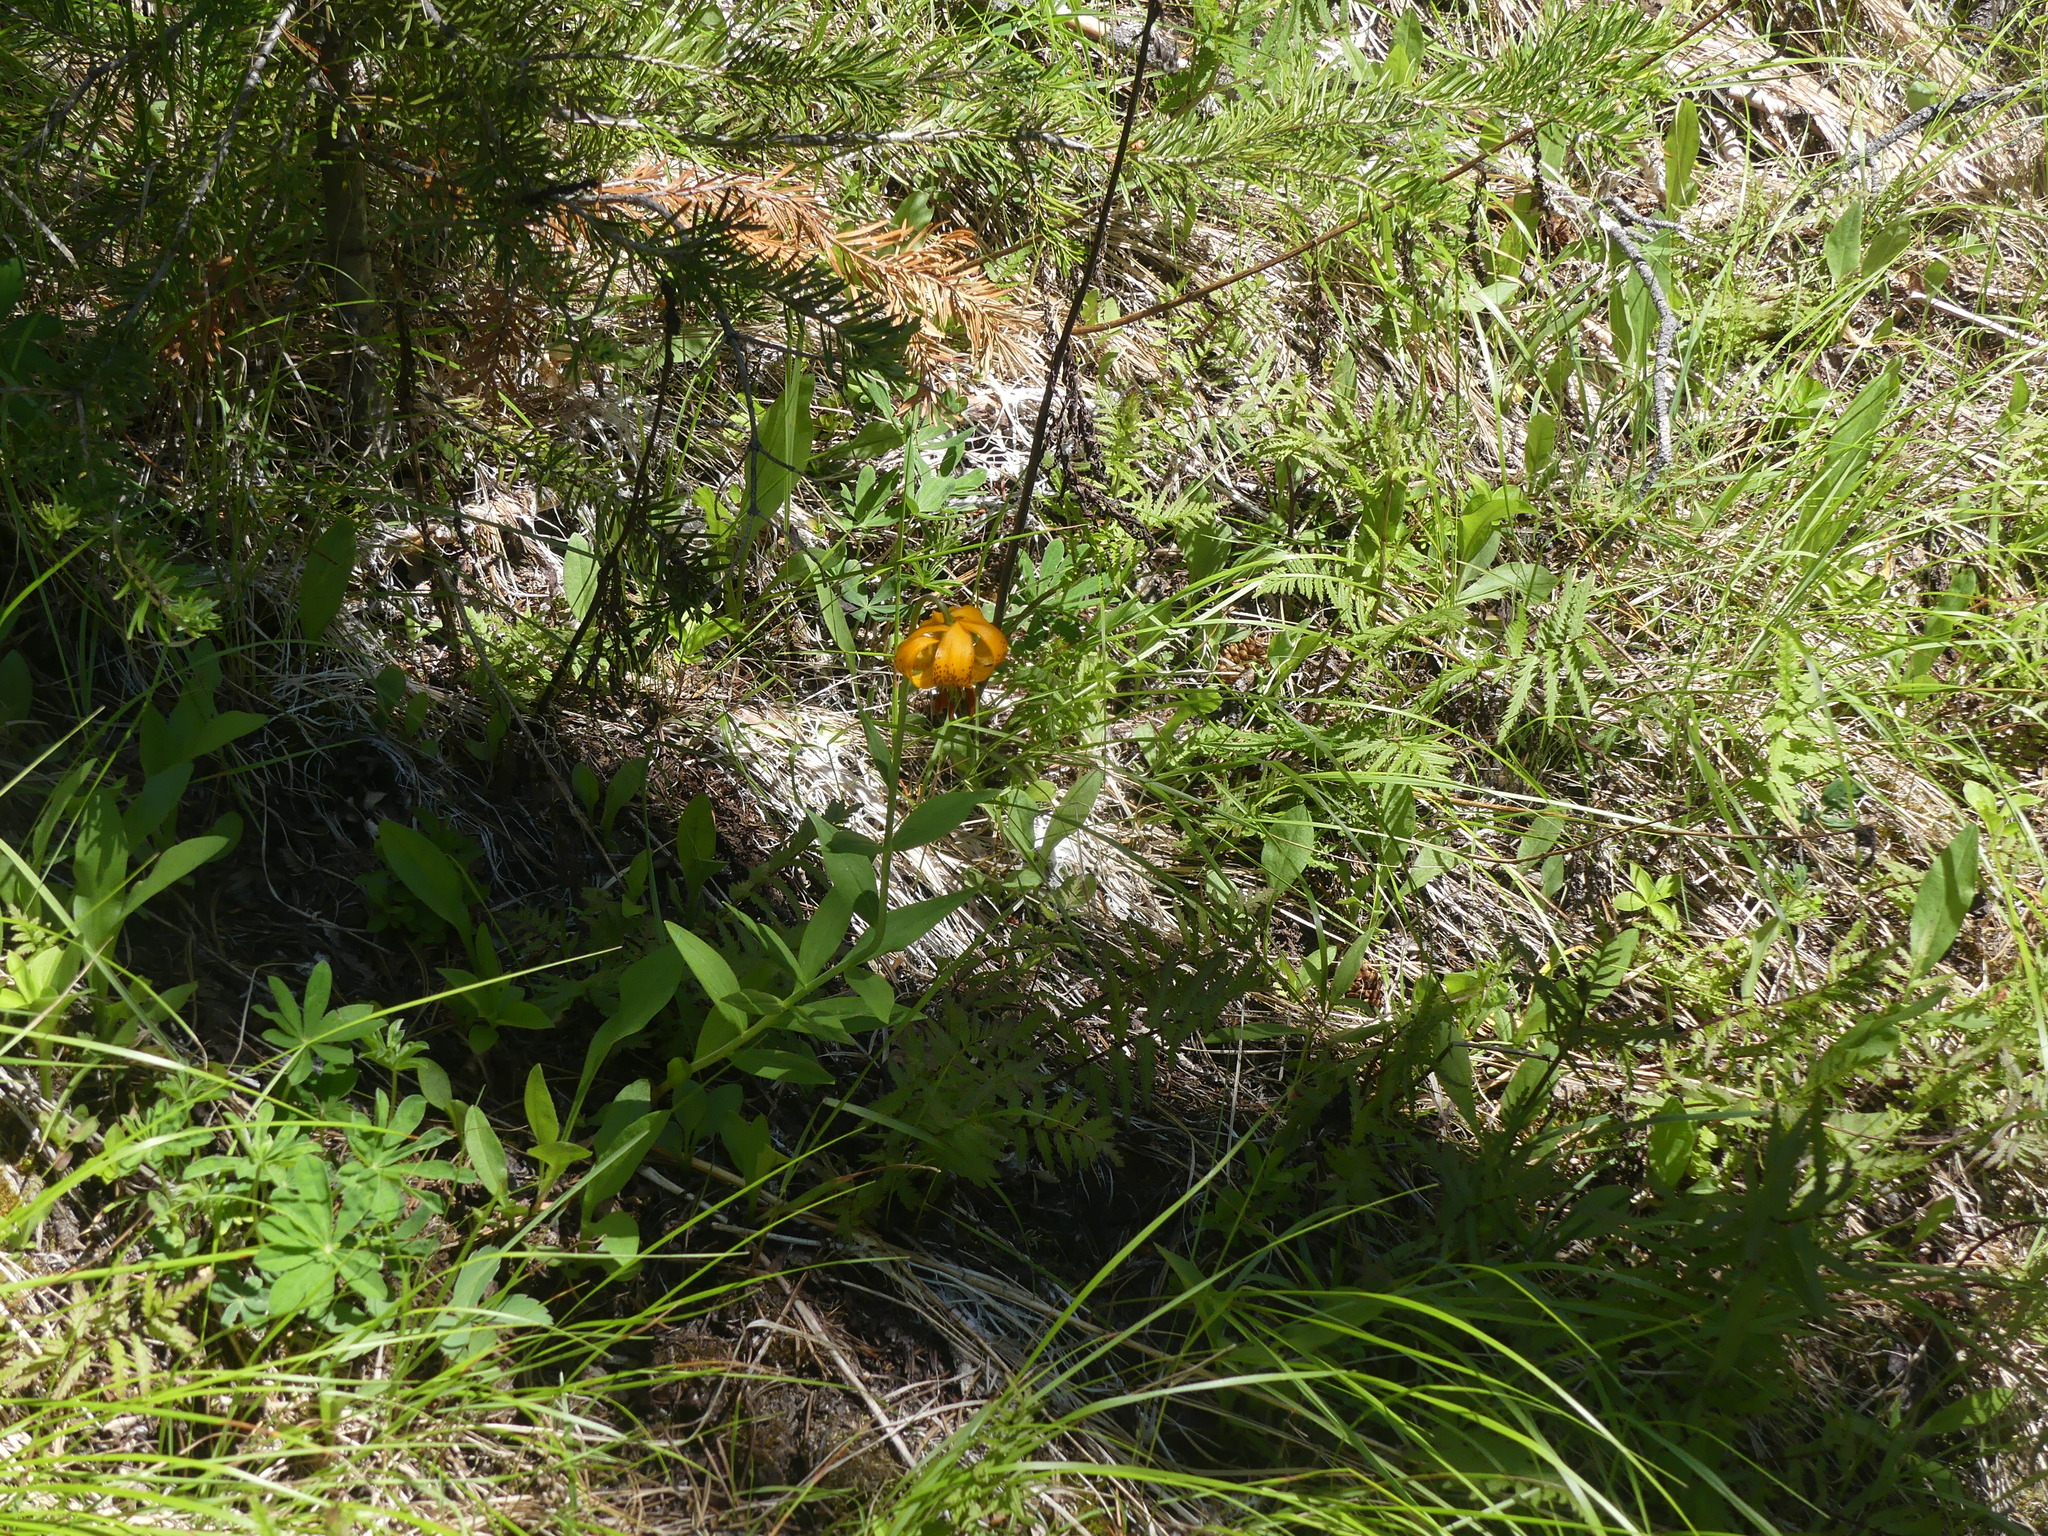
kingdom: Plantae
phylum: Tracheophyta
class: Liliopsida
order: Liliales
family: Liliaceae
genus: Lilium
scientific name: Lilium columbianum
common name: Columbia lily
